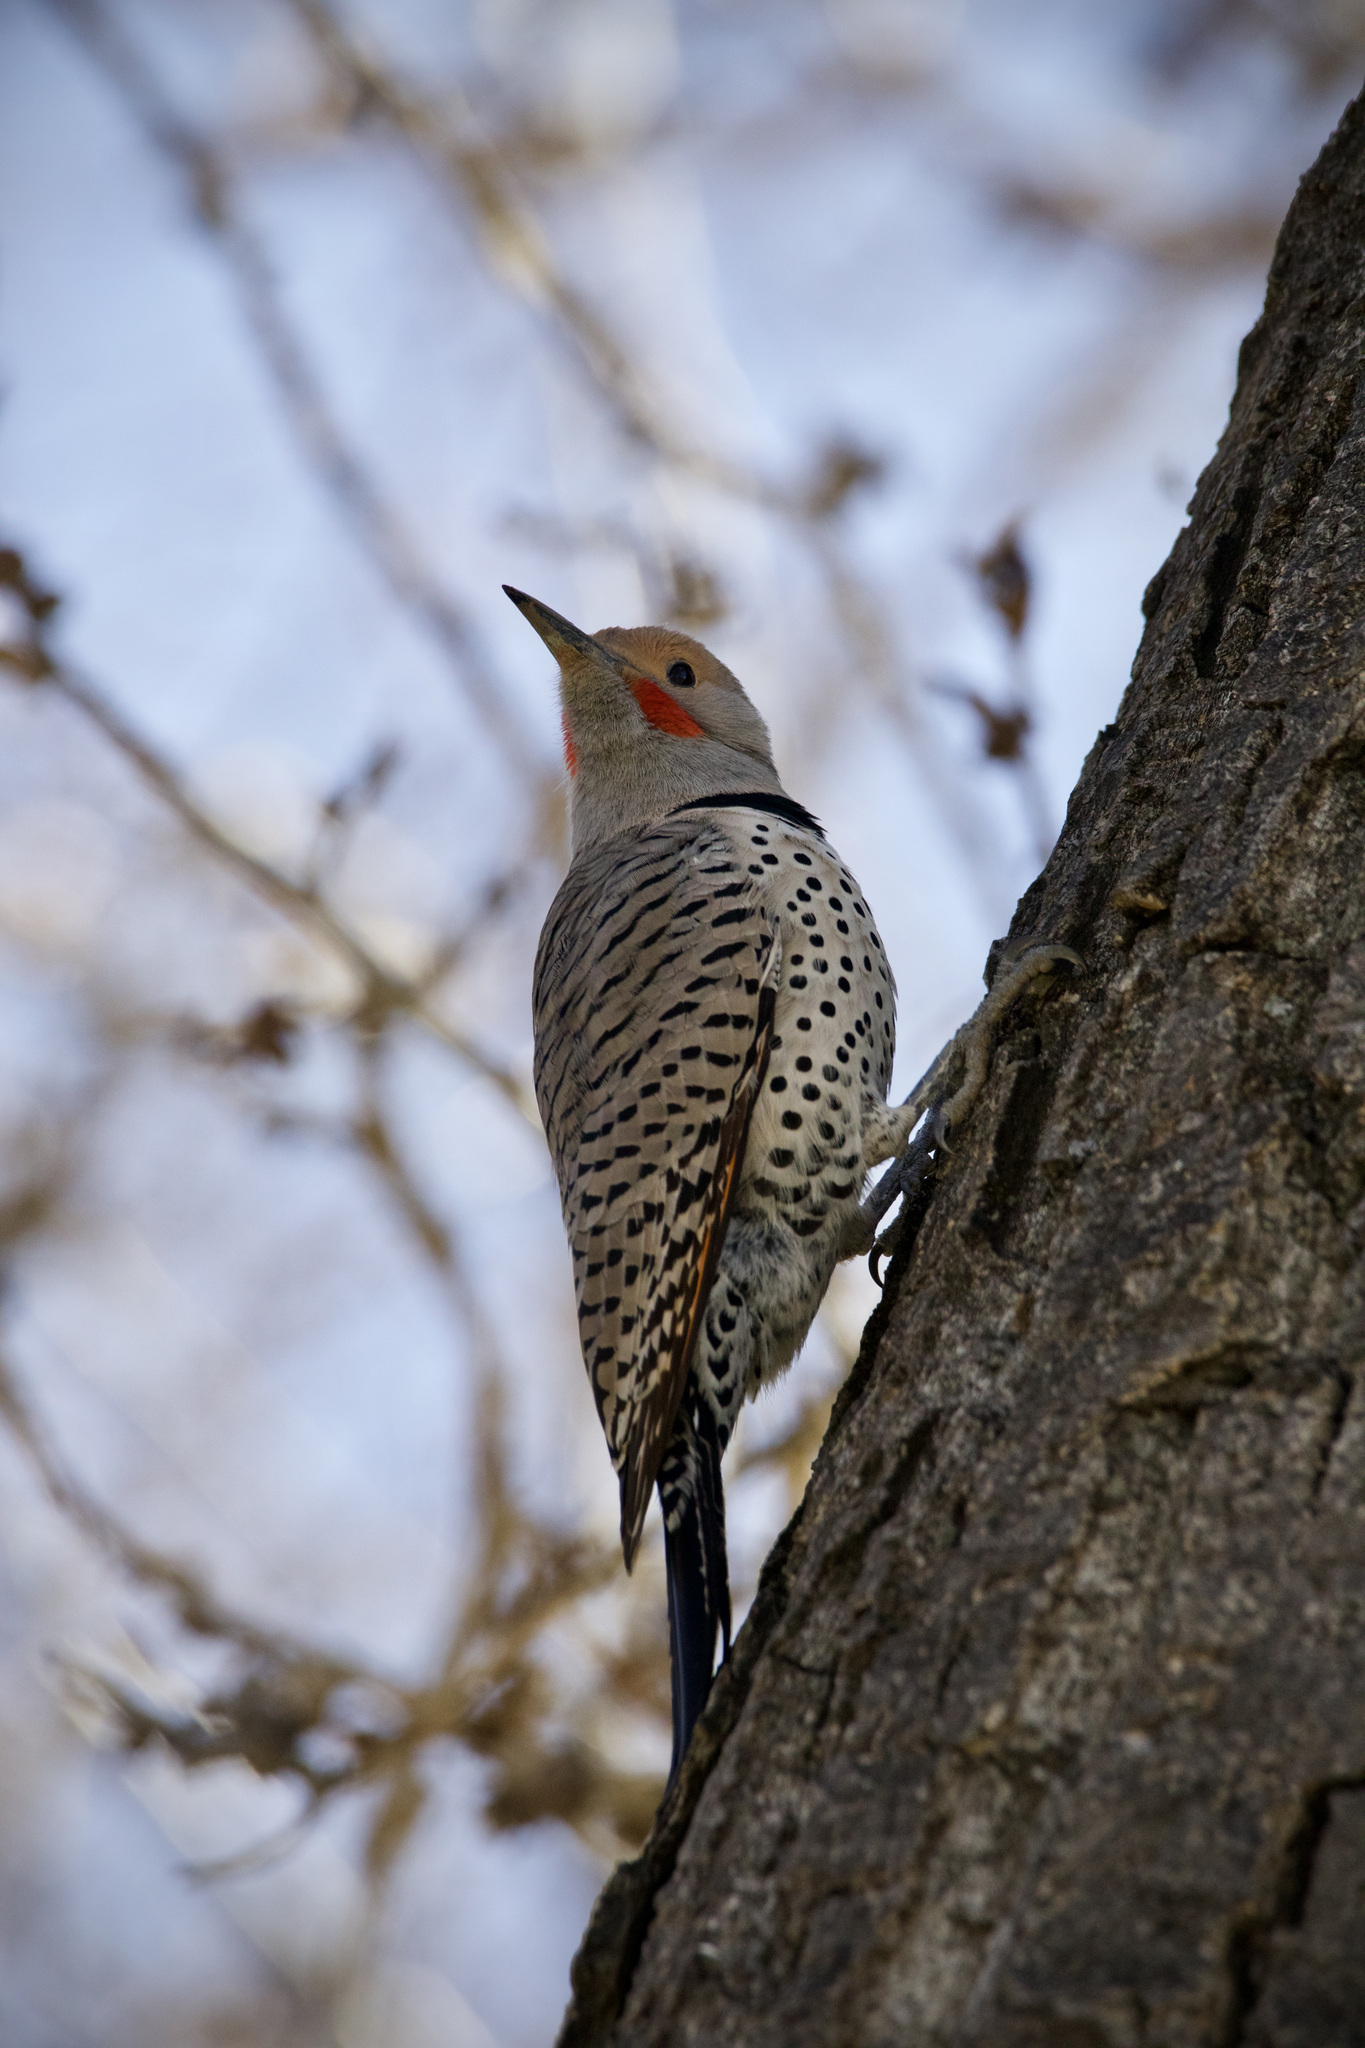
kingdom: Animalia
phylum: Chordata
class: Aves
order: Piciformes
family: Picidae
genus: Colaptes
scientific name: Colaptes auratus
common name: Northern flicker
